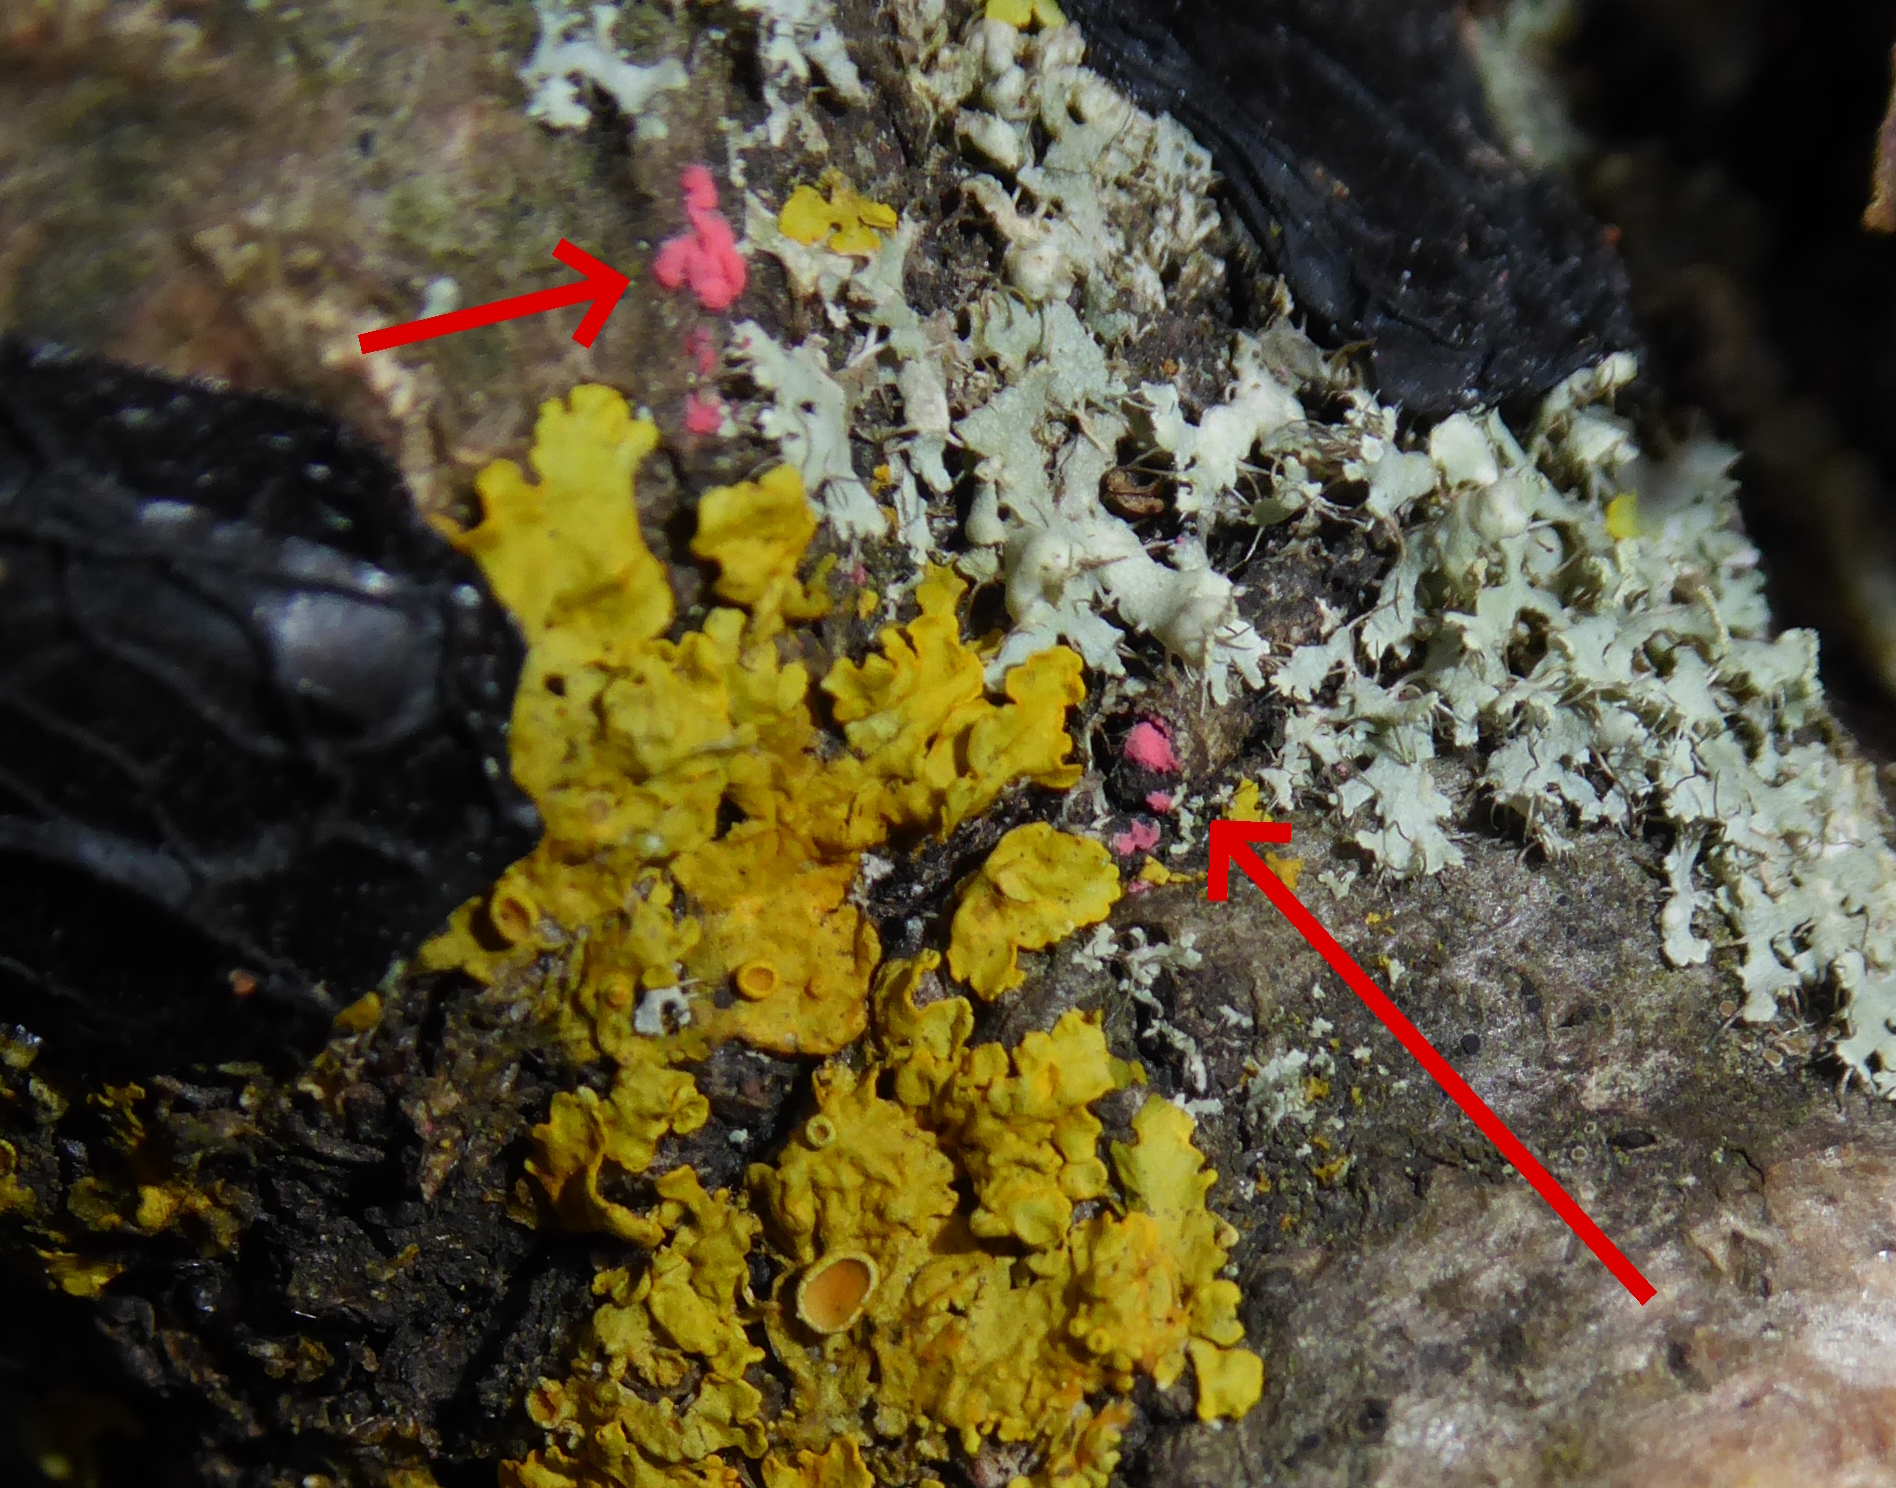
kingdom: Fungi
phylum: Ascomycota
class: Sordariomycetes
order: Hypocreales
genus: Illosporiopsis
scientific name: Illosporiopsis christiansenii
